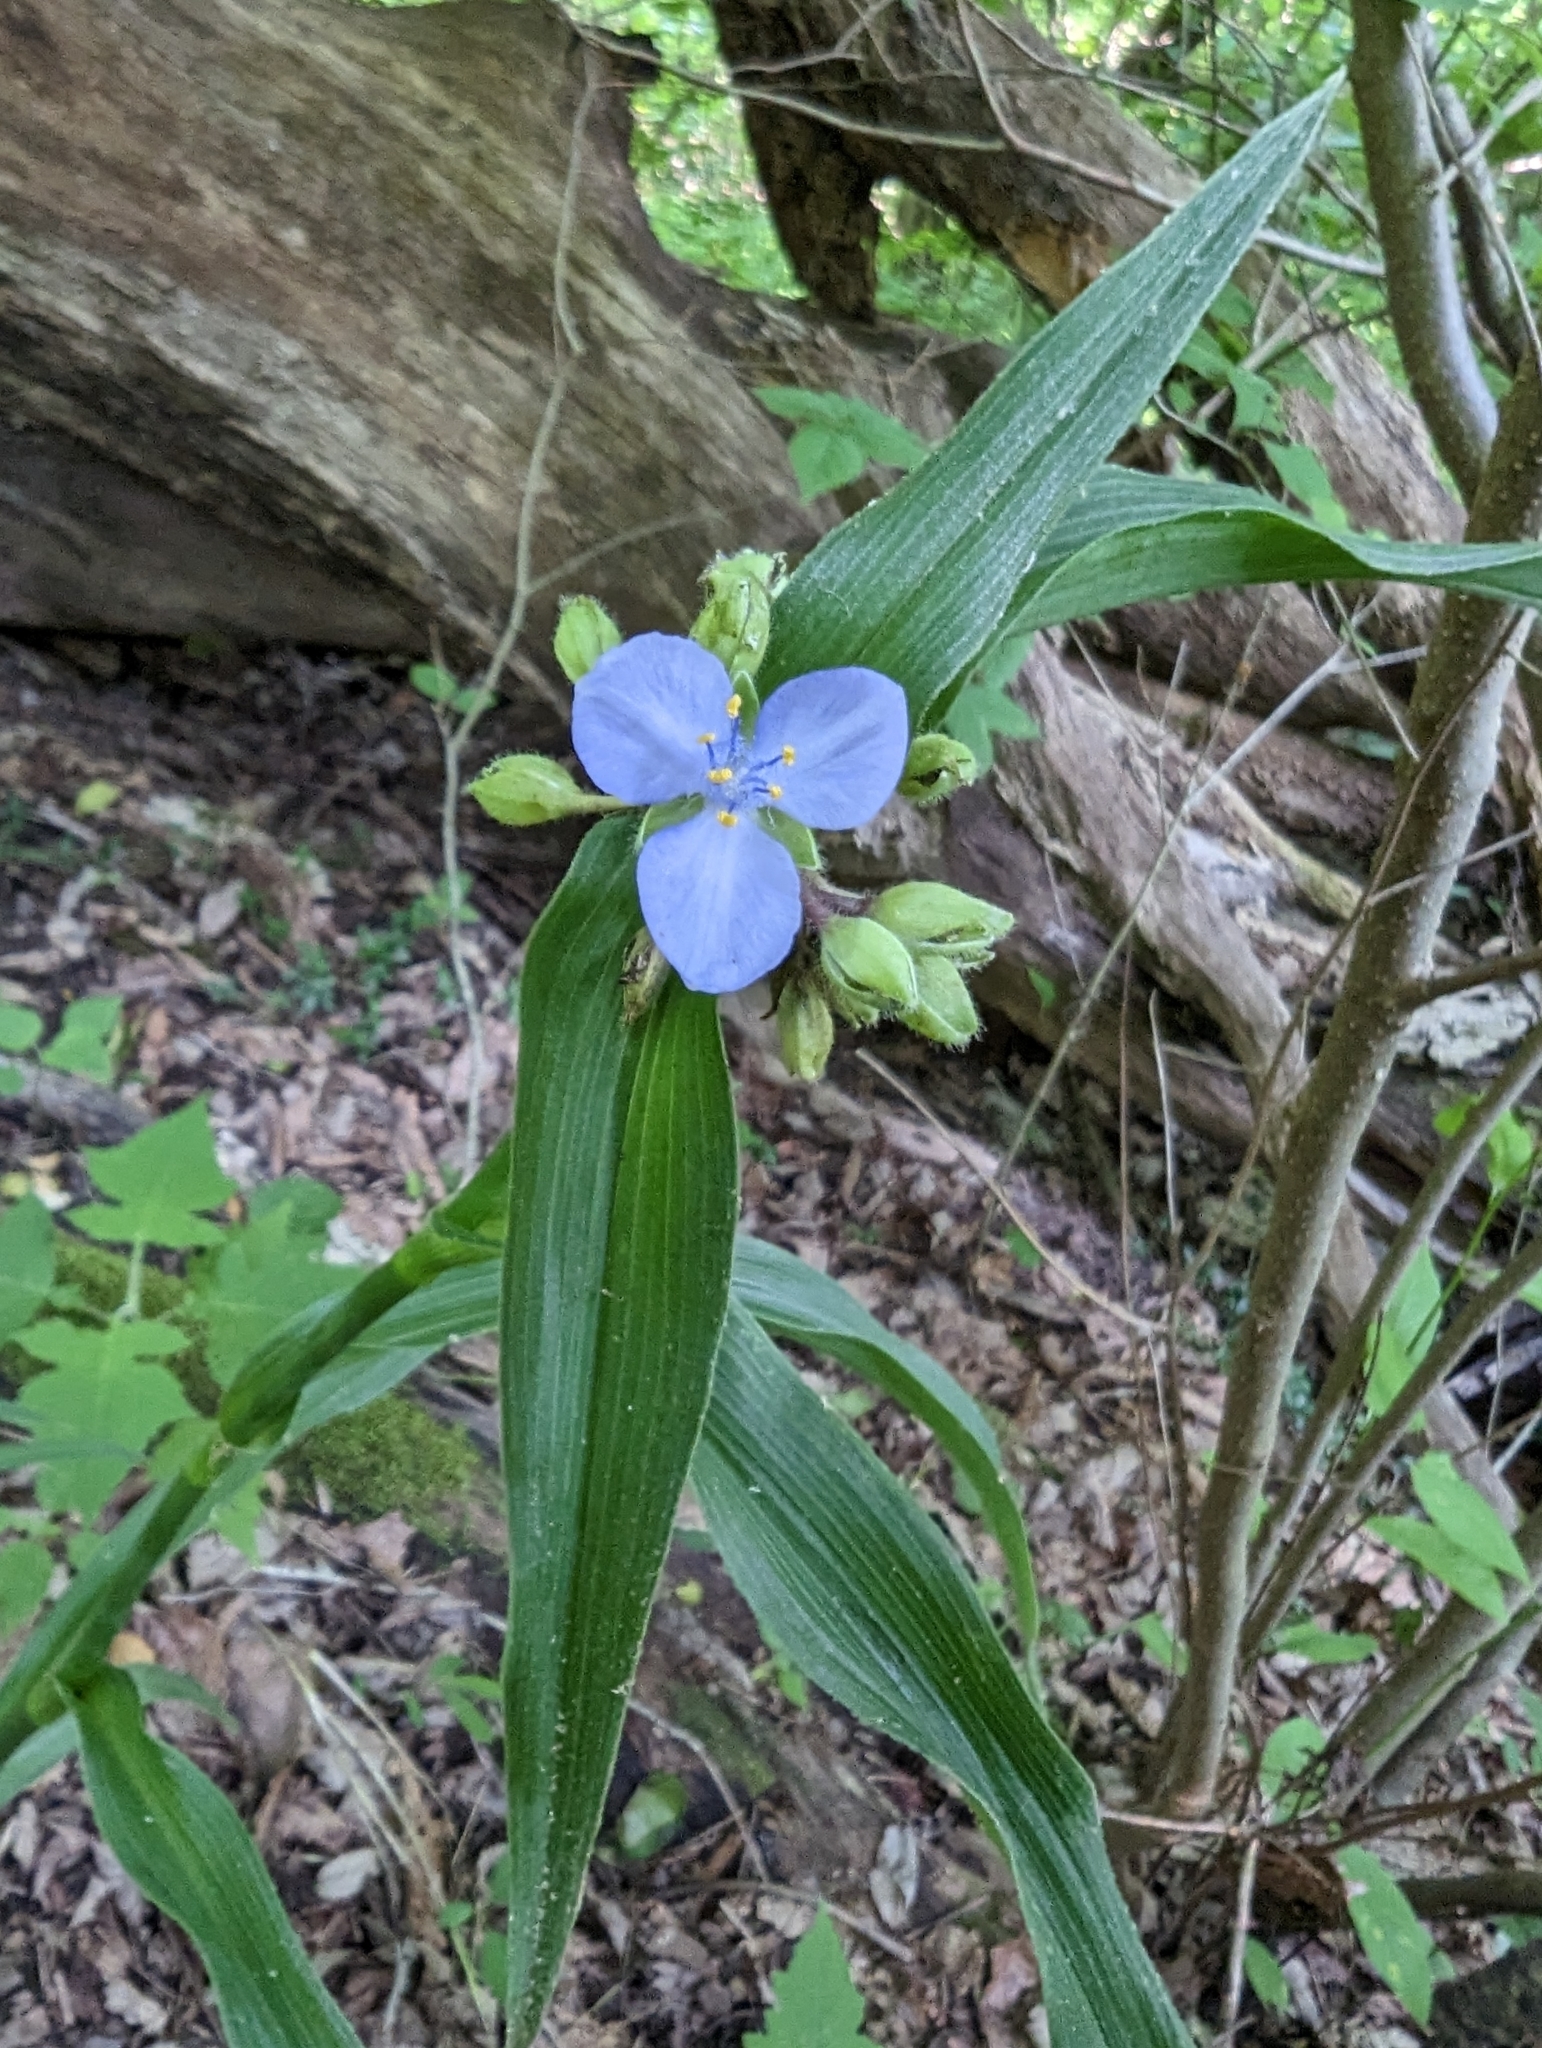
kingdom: Plantae
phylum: Tracheophyta
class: Liliopsida
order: Commelinales
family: Commelinaceae
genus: Tradescantia
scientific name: Tradescantia subaspera
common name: Wide-leaf spiderwort
